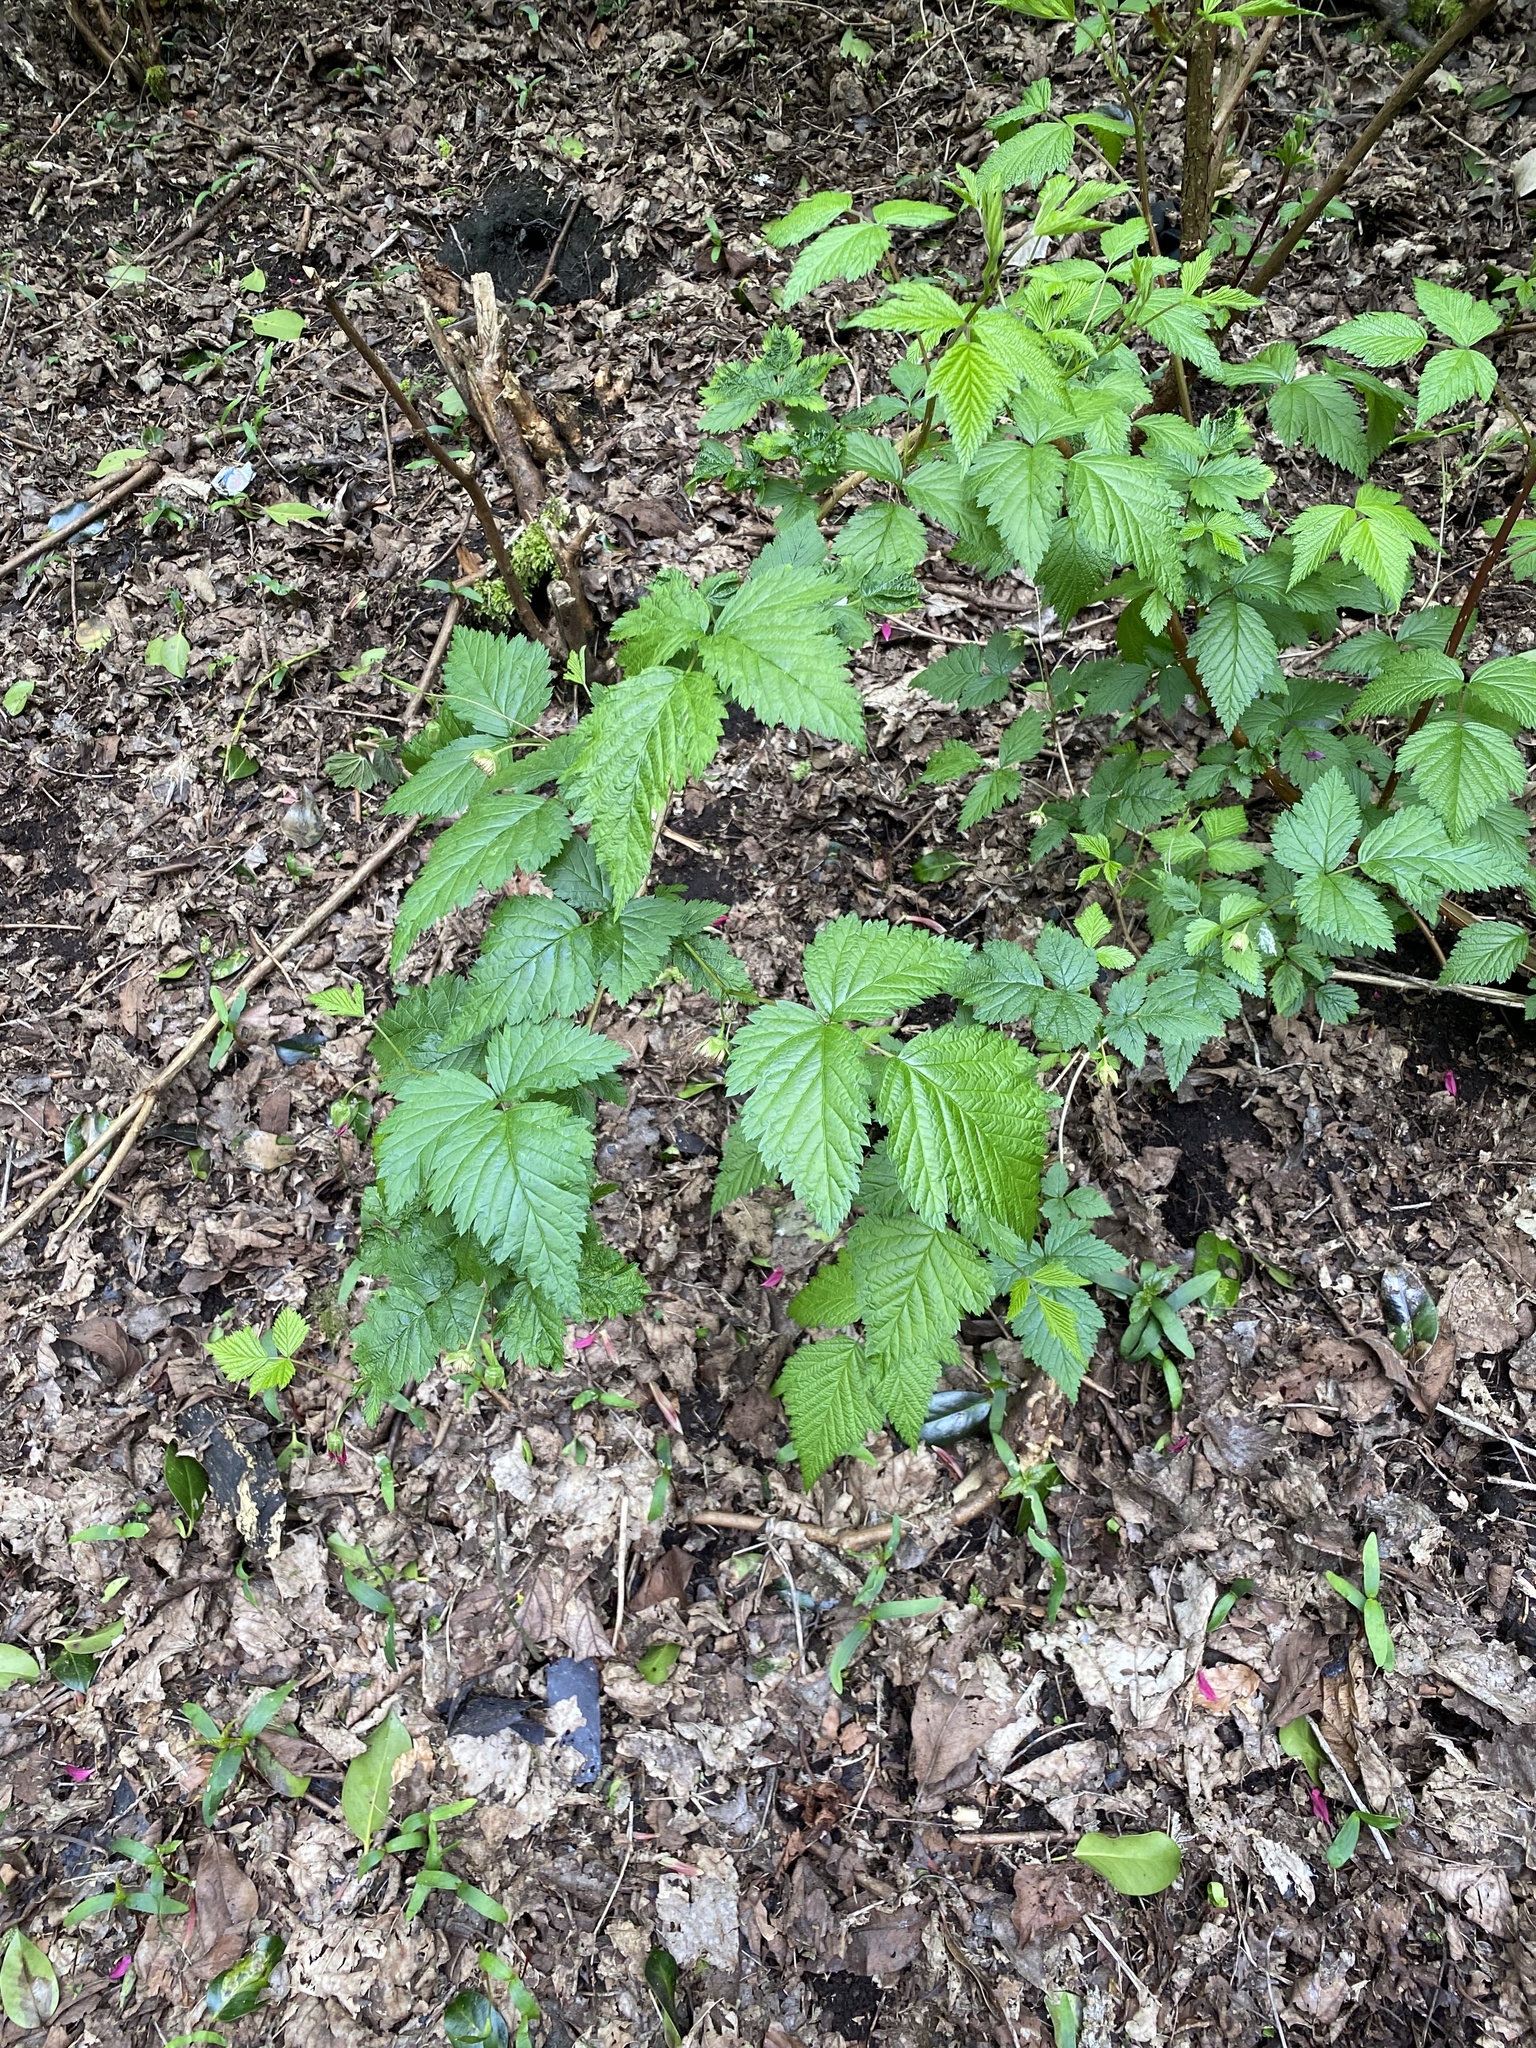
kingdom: Plantae
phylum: Tracheophyta
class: Magnoliopsida
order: Rosales
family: Rosaceae
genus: Rubus
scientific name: Rubus spectabilis
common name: Salmonberry
